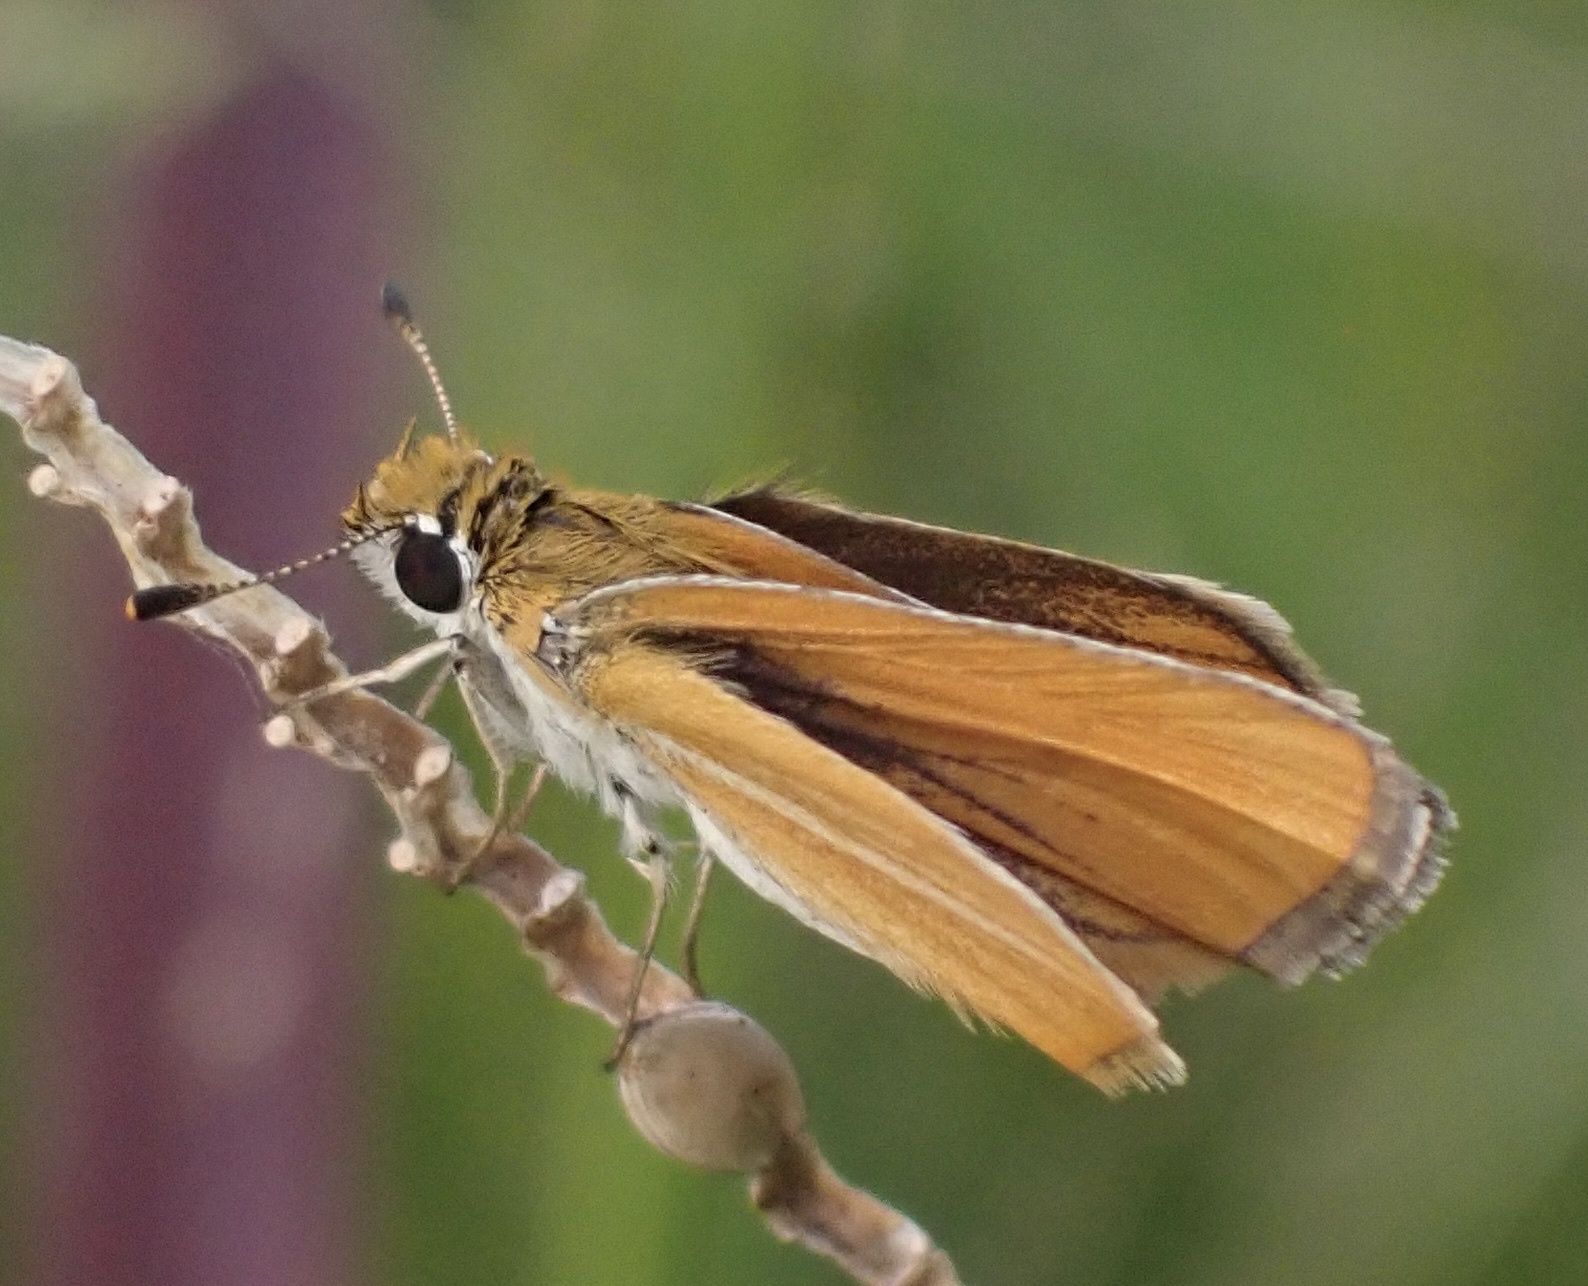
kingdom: Animalia
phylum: Arthropoda
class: Insecta
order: Lepidoptera
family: Hesperiidae
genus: Copaeodes
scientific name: Copaeodes minima
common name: Southern skipperling
